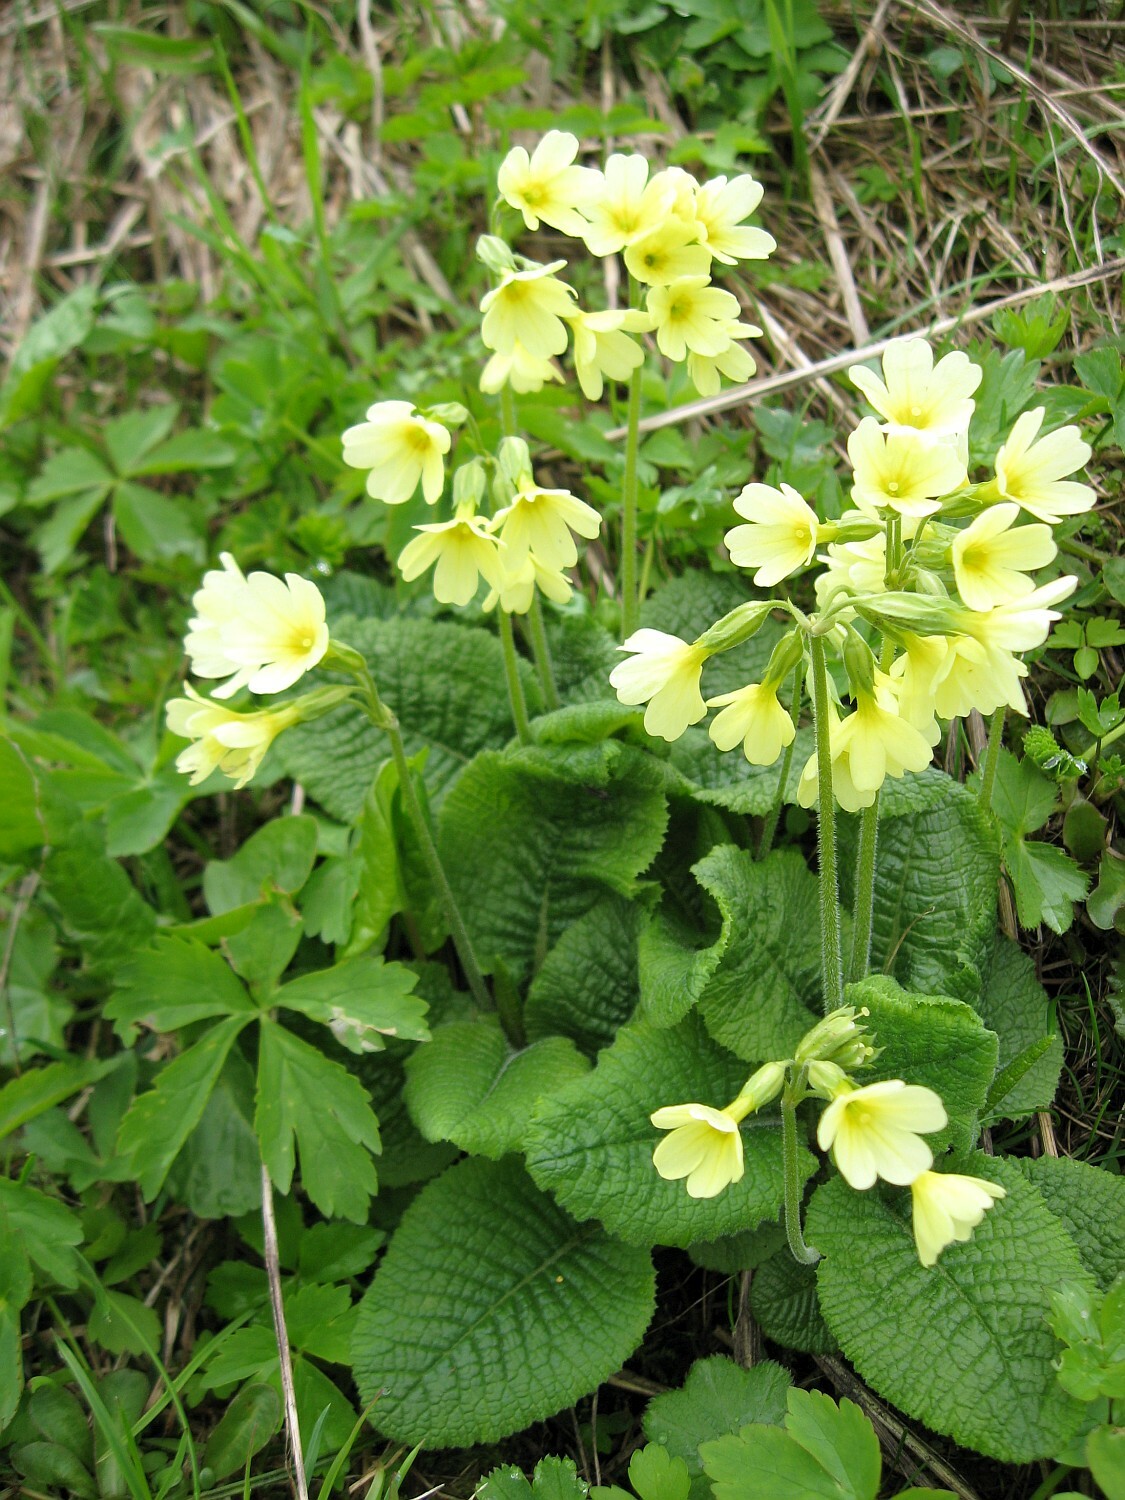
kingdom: Plantae
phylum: Tracheophyta
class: Magnoliopsida
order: Ericales
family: Primulaceae
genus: Primula
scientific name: Primula elatior
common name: Oxlip
